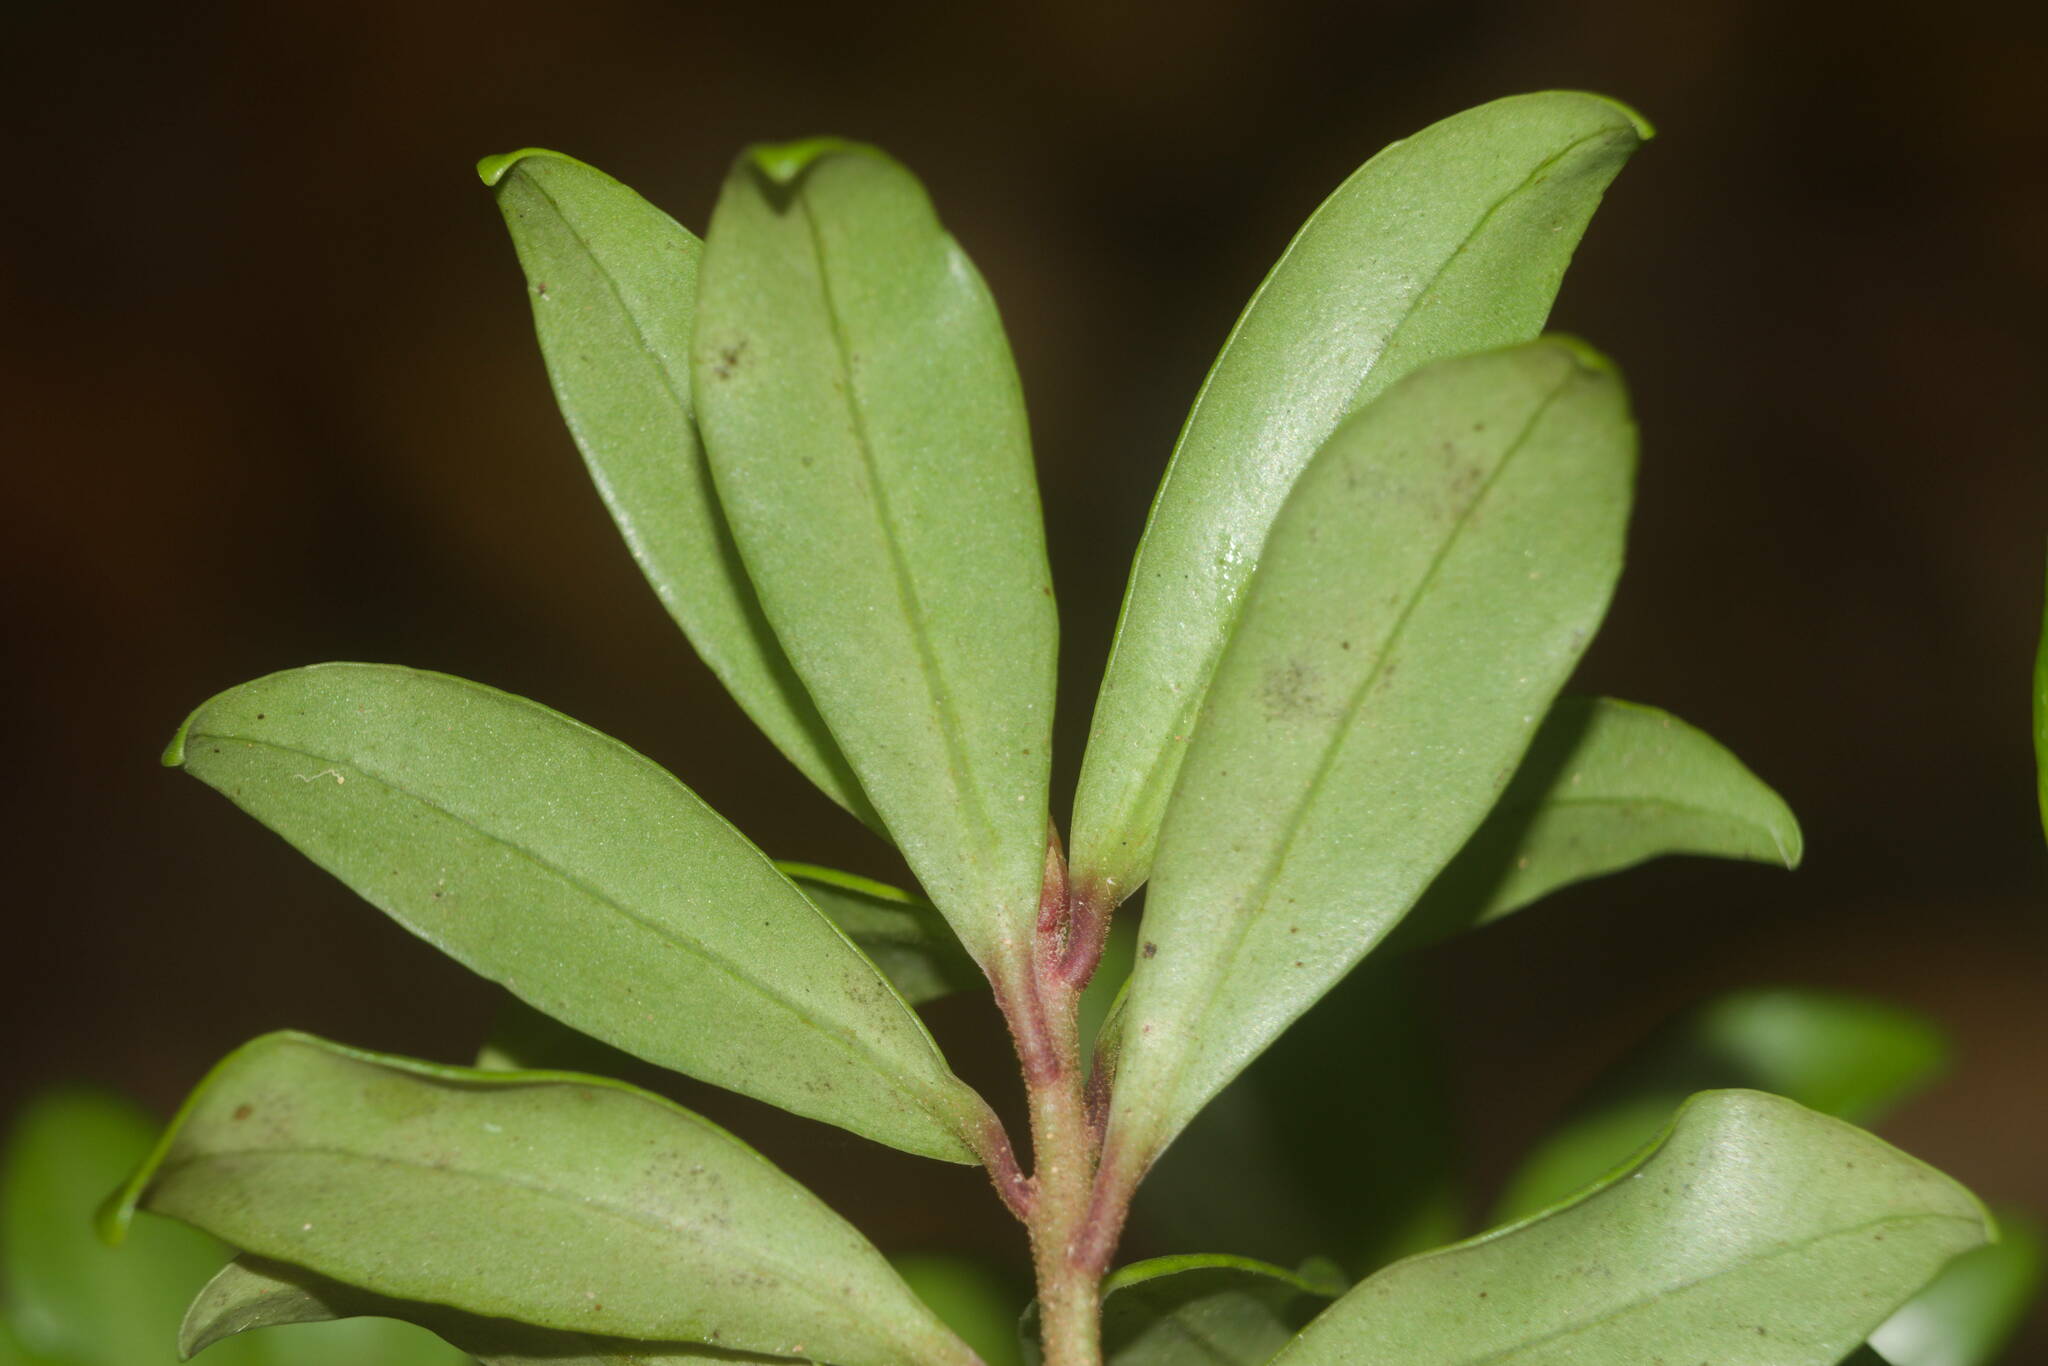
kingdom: Plantae
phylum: Tracheophyta
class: Magnoliopsida
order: Ericales
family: Primulaceae
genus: Myrsine
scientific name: Myrsine denticulata
